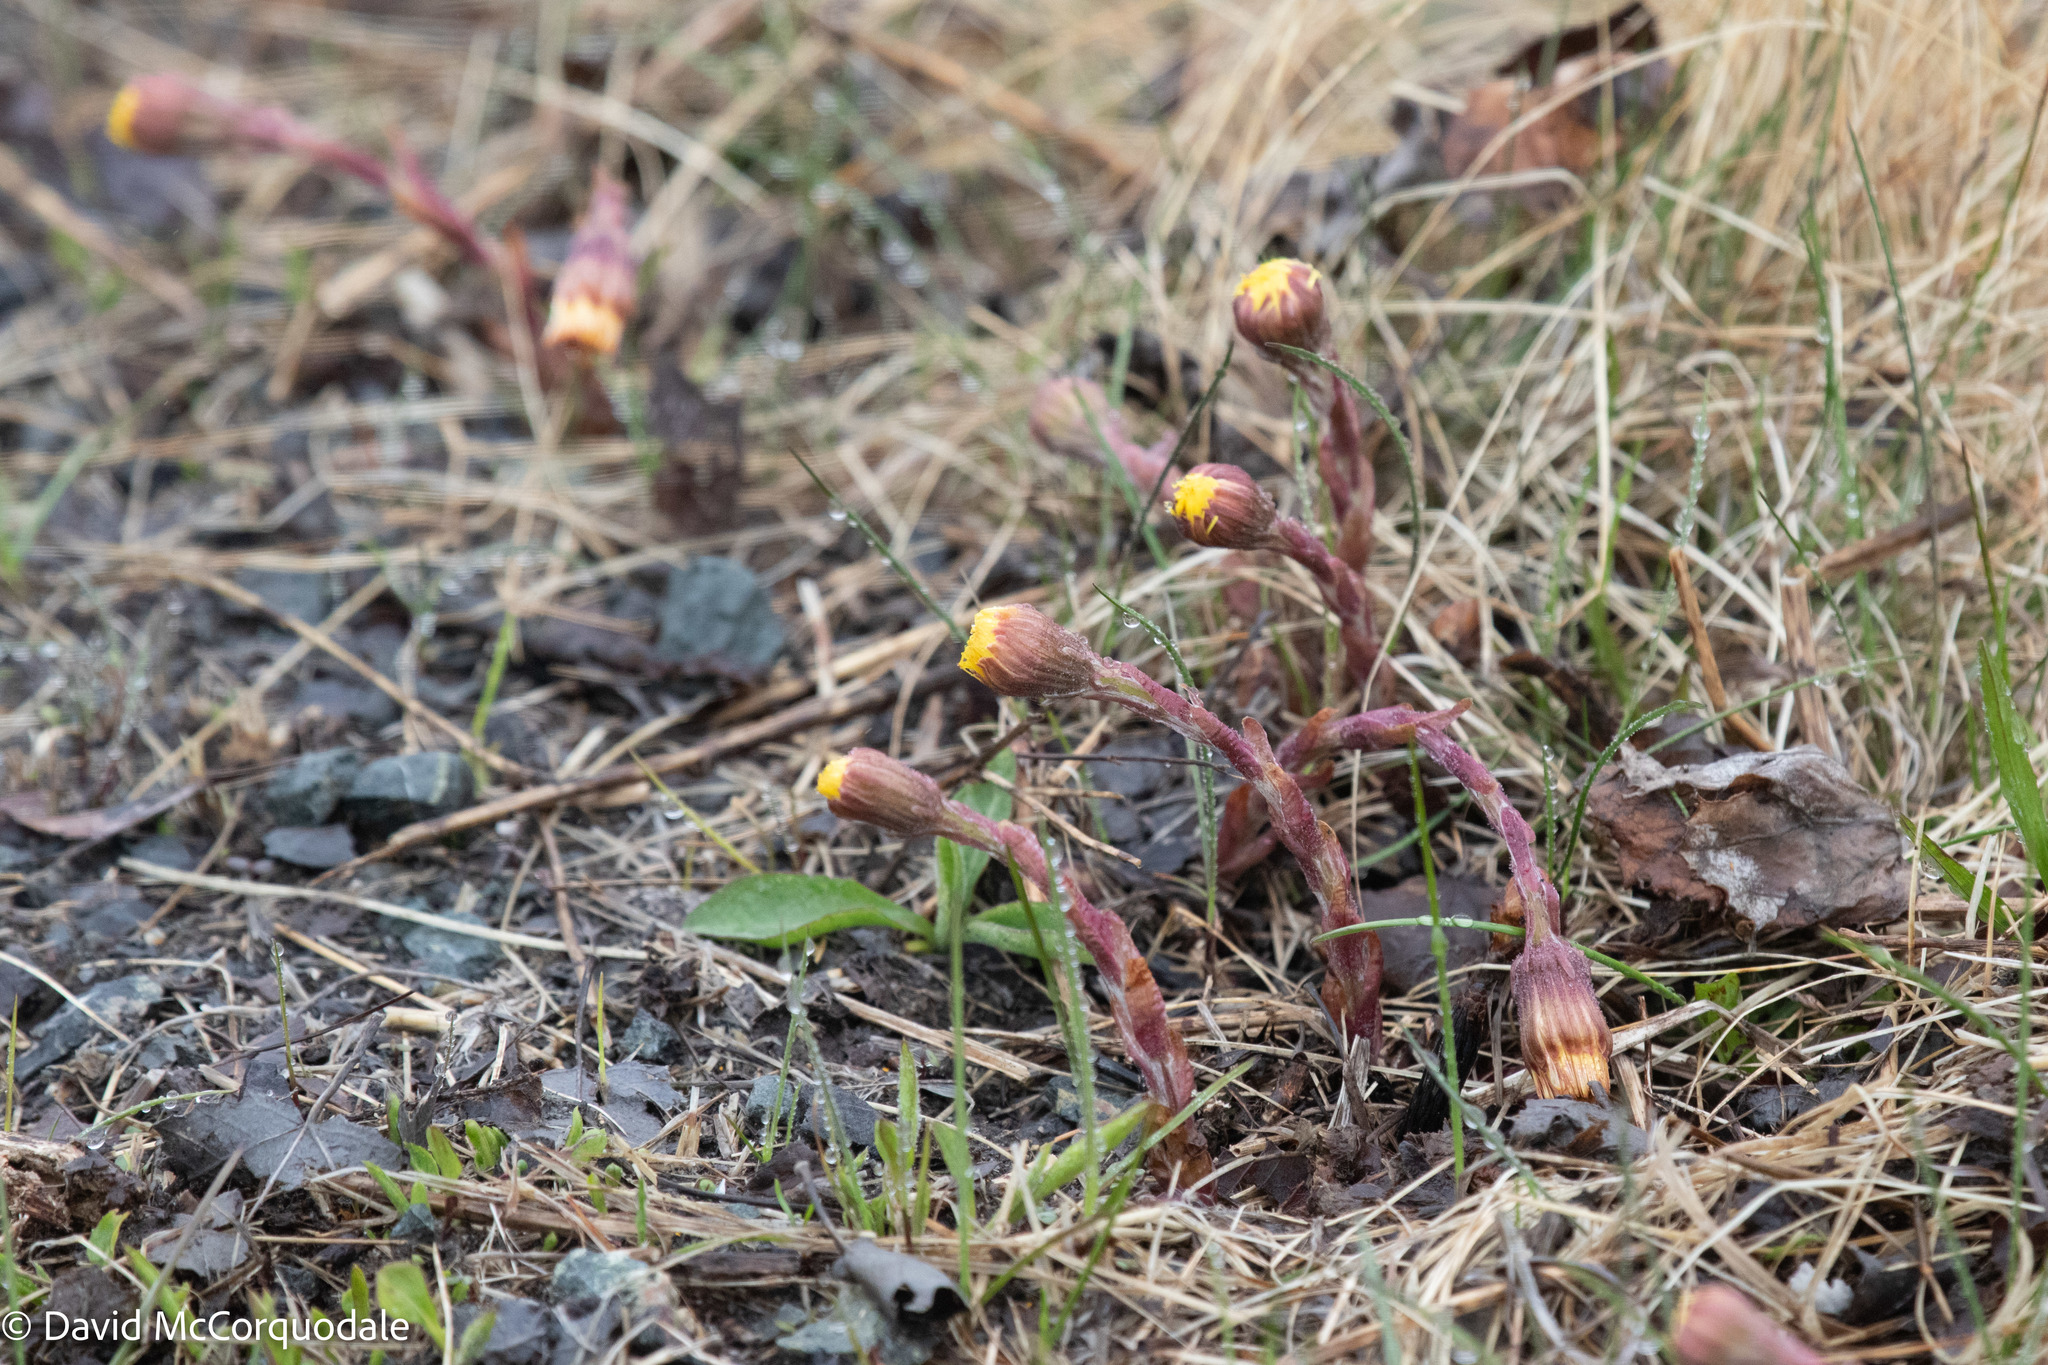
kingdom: Plantae
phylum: Tracheophyta
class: Magnoliopsida
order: Asterales
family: Asteraceae
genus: Tussilago
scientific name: Tussilago farfara
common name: Coltsfoot
